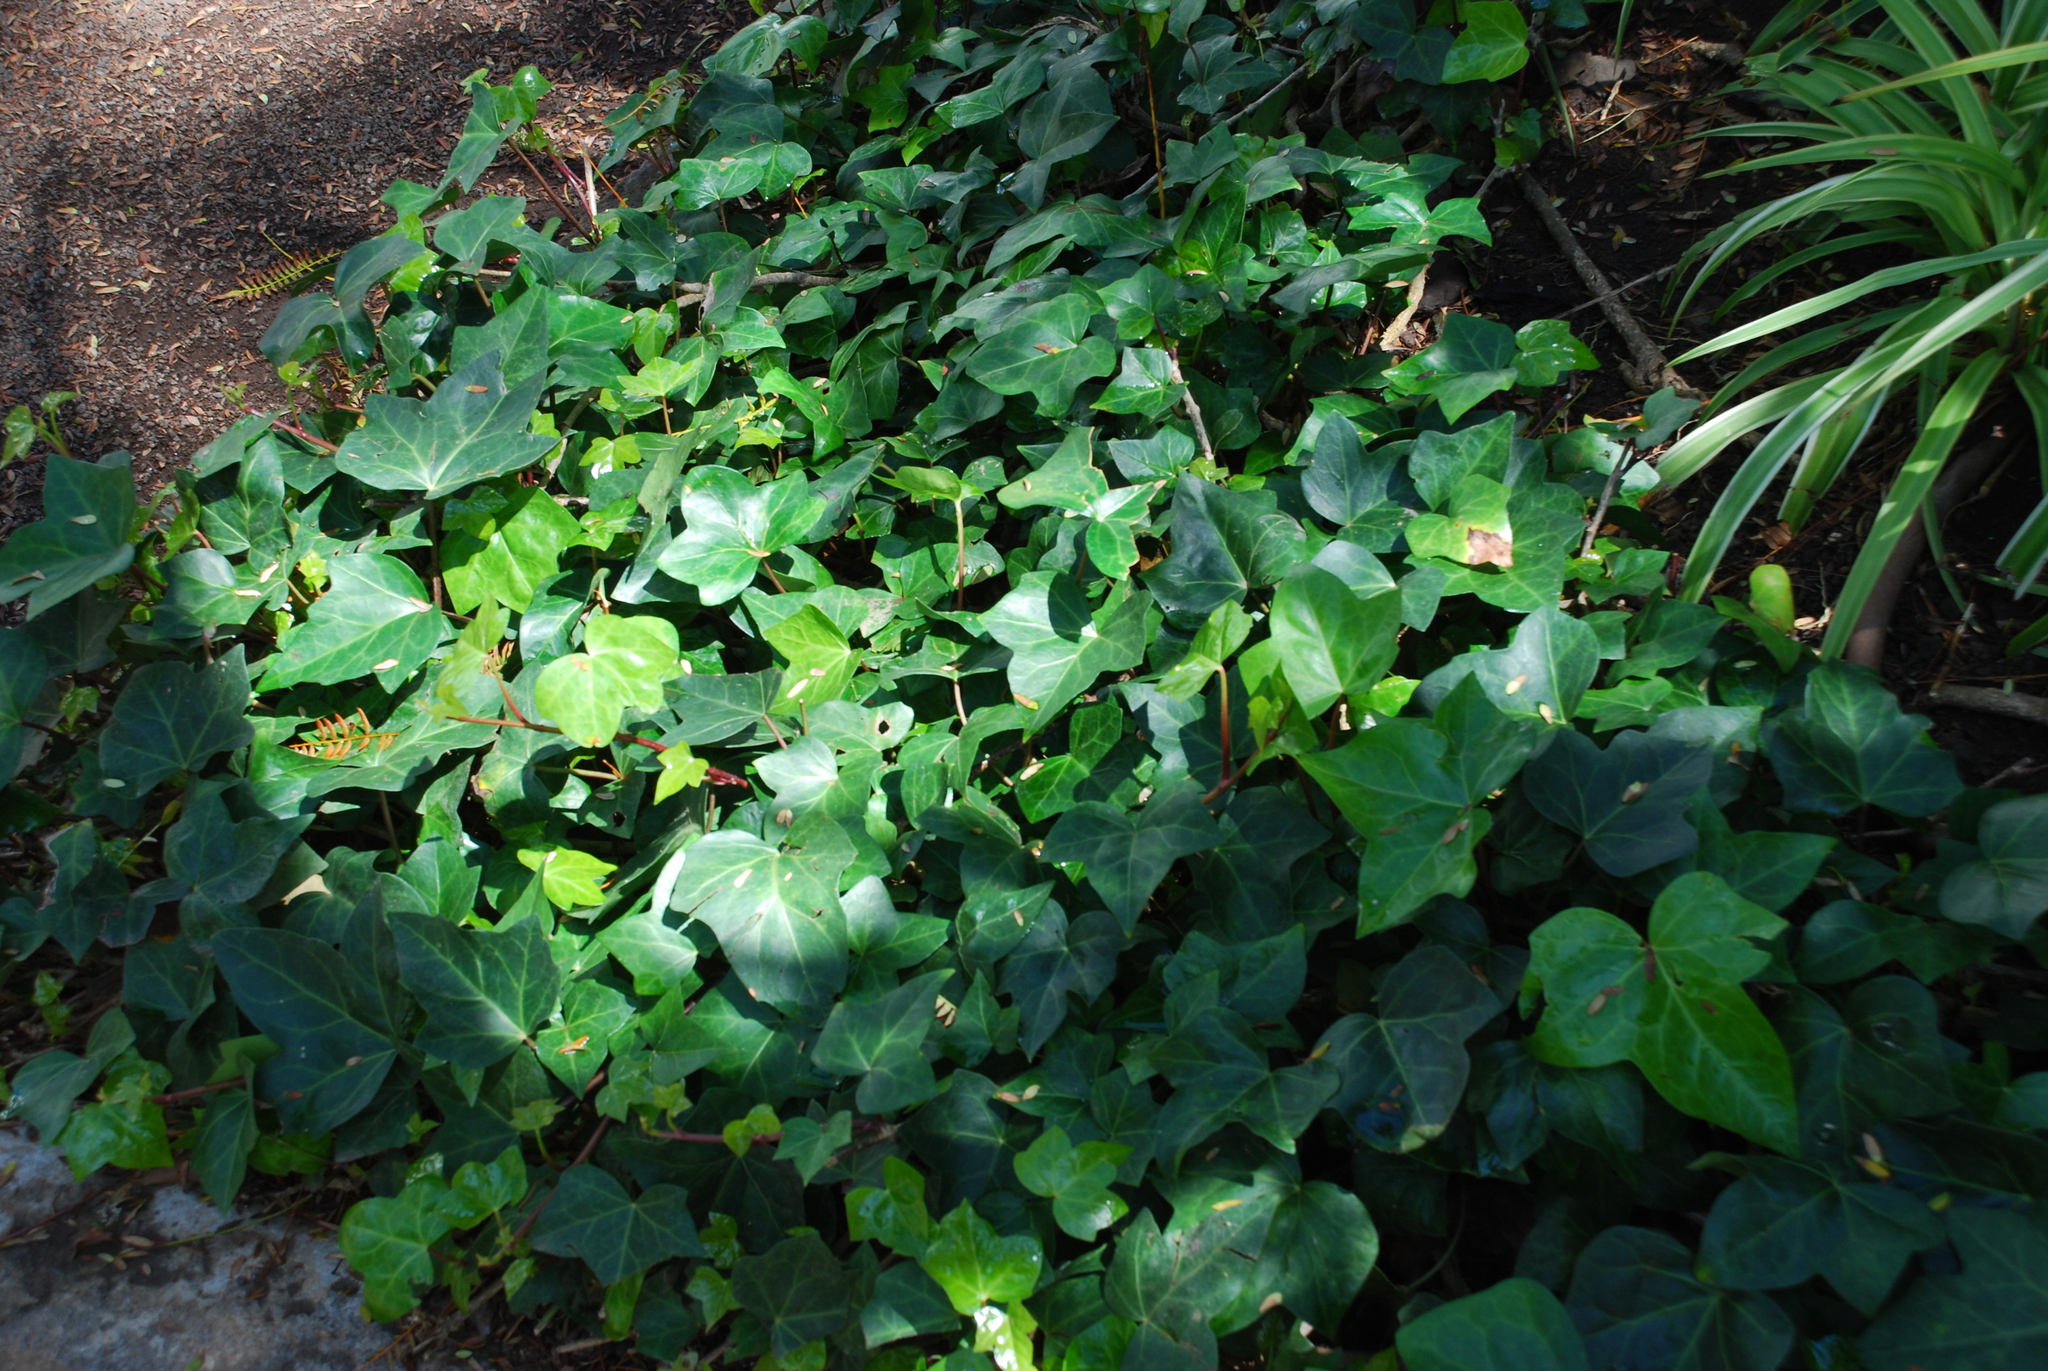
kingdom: Plantae
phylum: Tracheophyta
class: Magnoliopsida
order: Apiales
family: Araliaceae
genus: Hedera
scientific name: Hedera canariensis
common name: Madeira ivy
